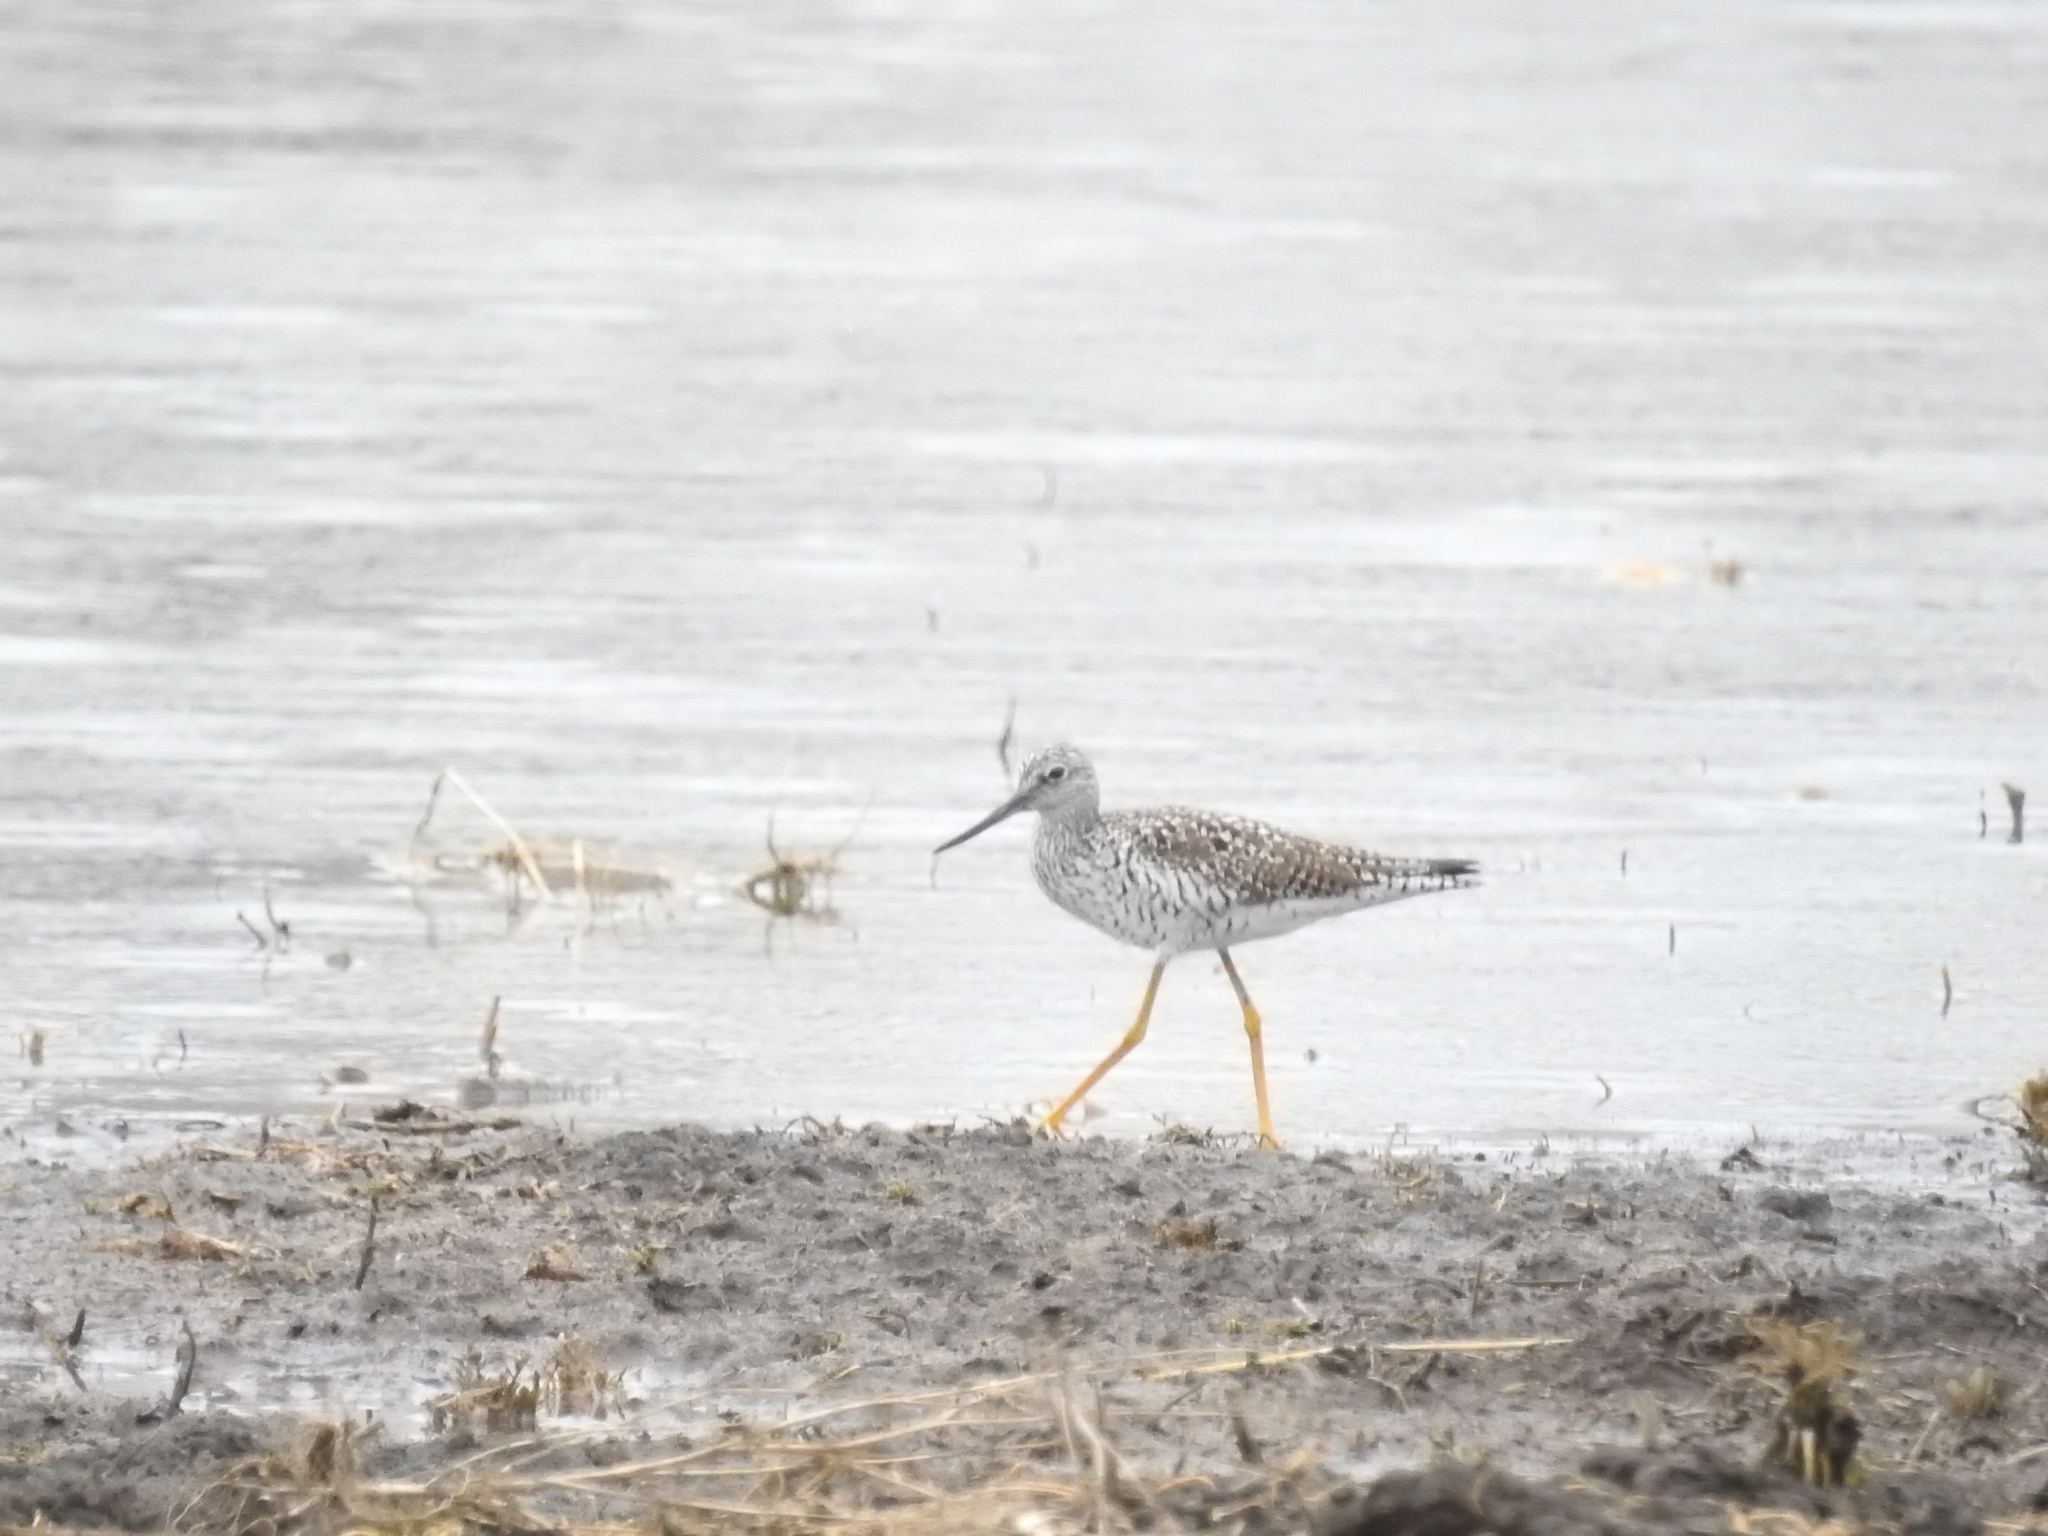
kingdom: Animalia
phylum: Chordata
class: Aves
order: Charadriiformes
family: Scolopacidae
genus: Tringa
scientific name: Tringa melanoleuca
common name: Greater yellowlegs
